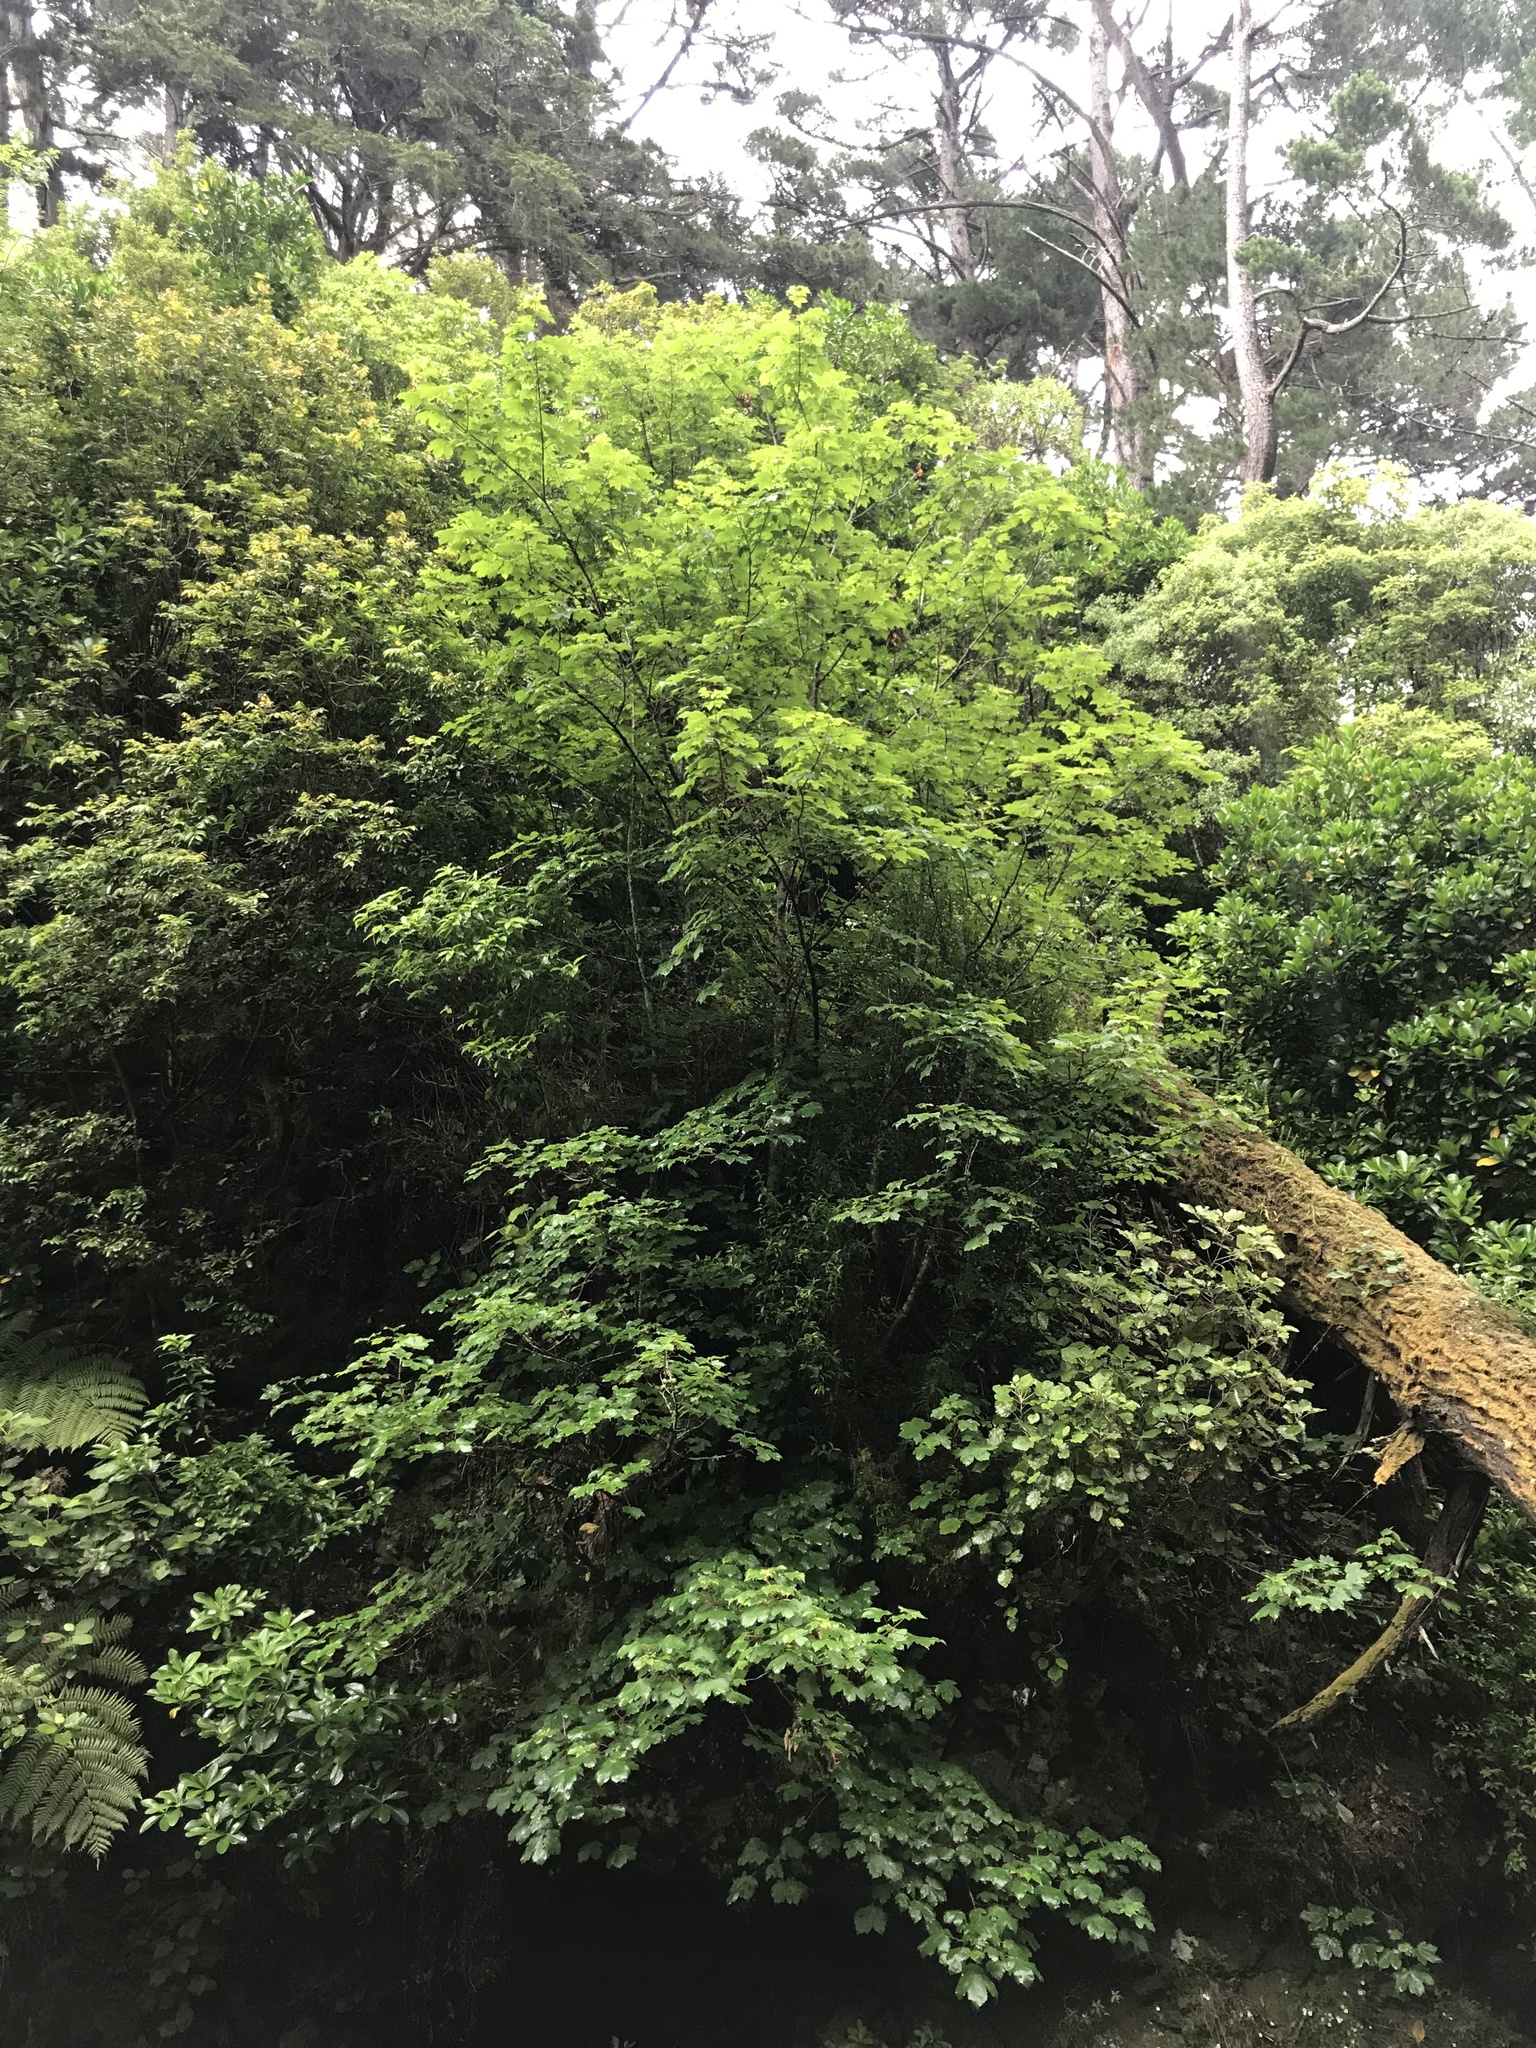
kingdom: Plantae
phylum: Tracheophyta
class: Magnoliopsida
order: Sapindales
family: Sapindaceae
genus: Acer
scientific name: Acer pseudoplatanus
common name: Sycamore
